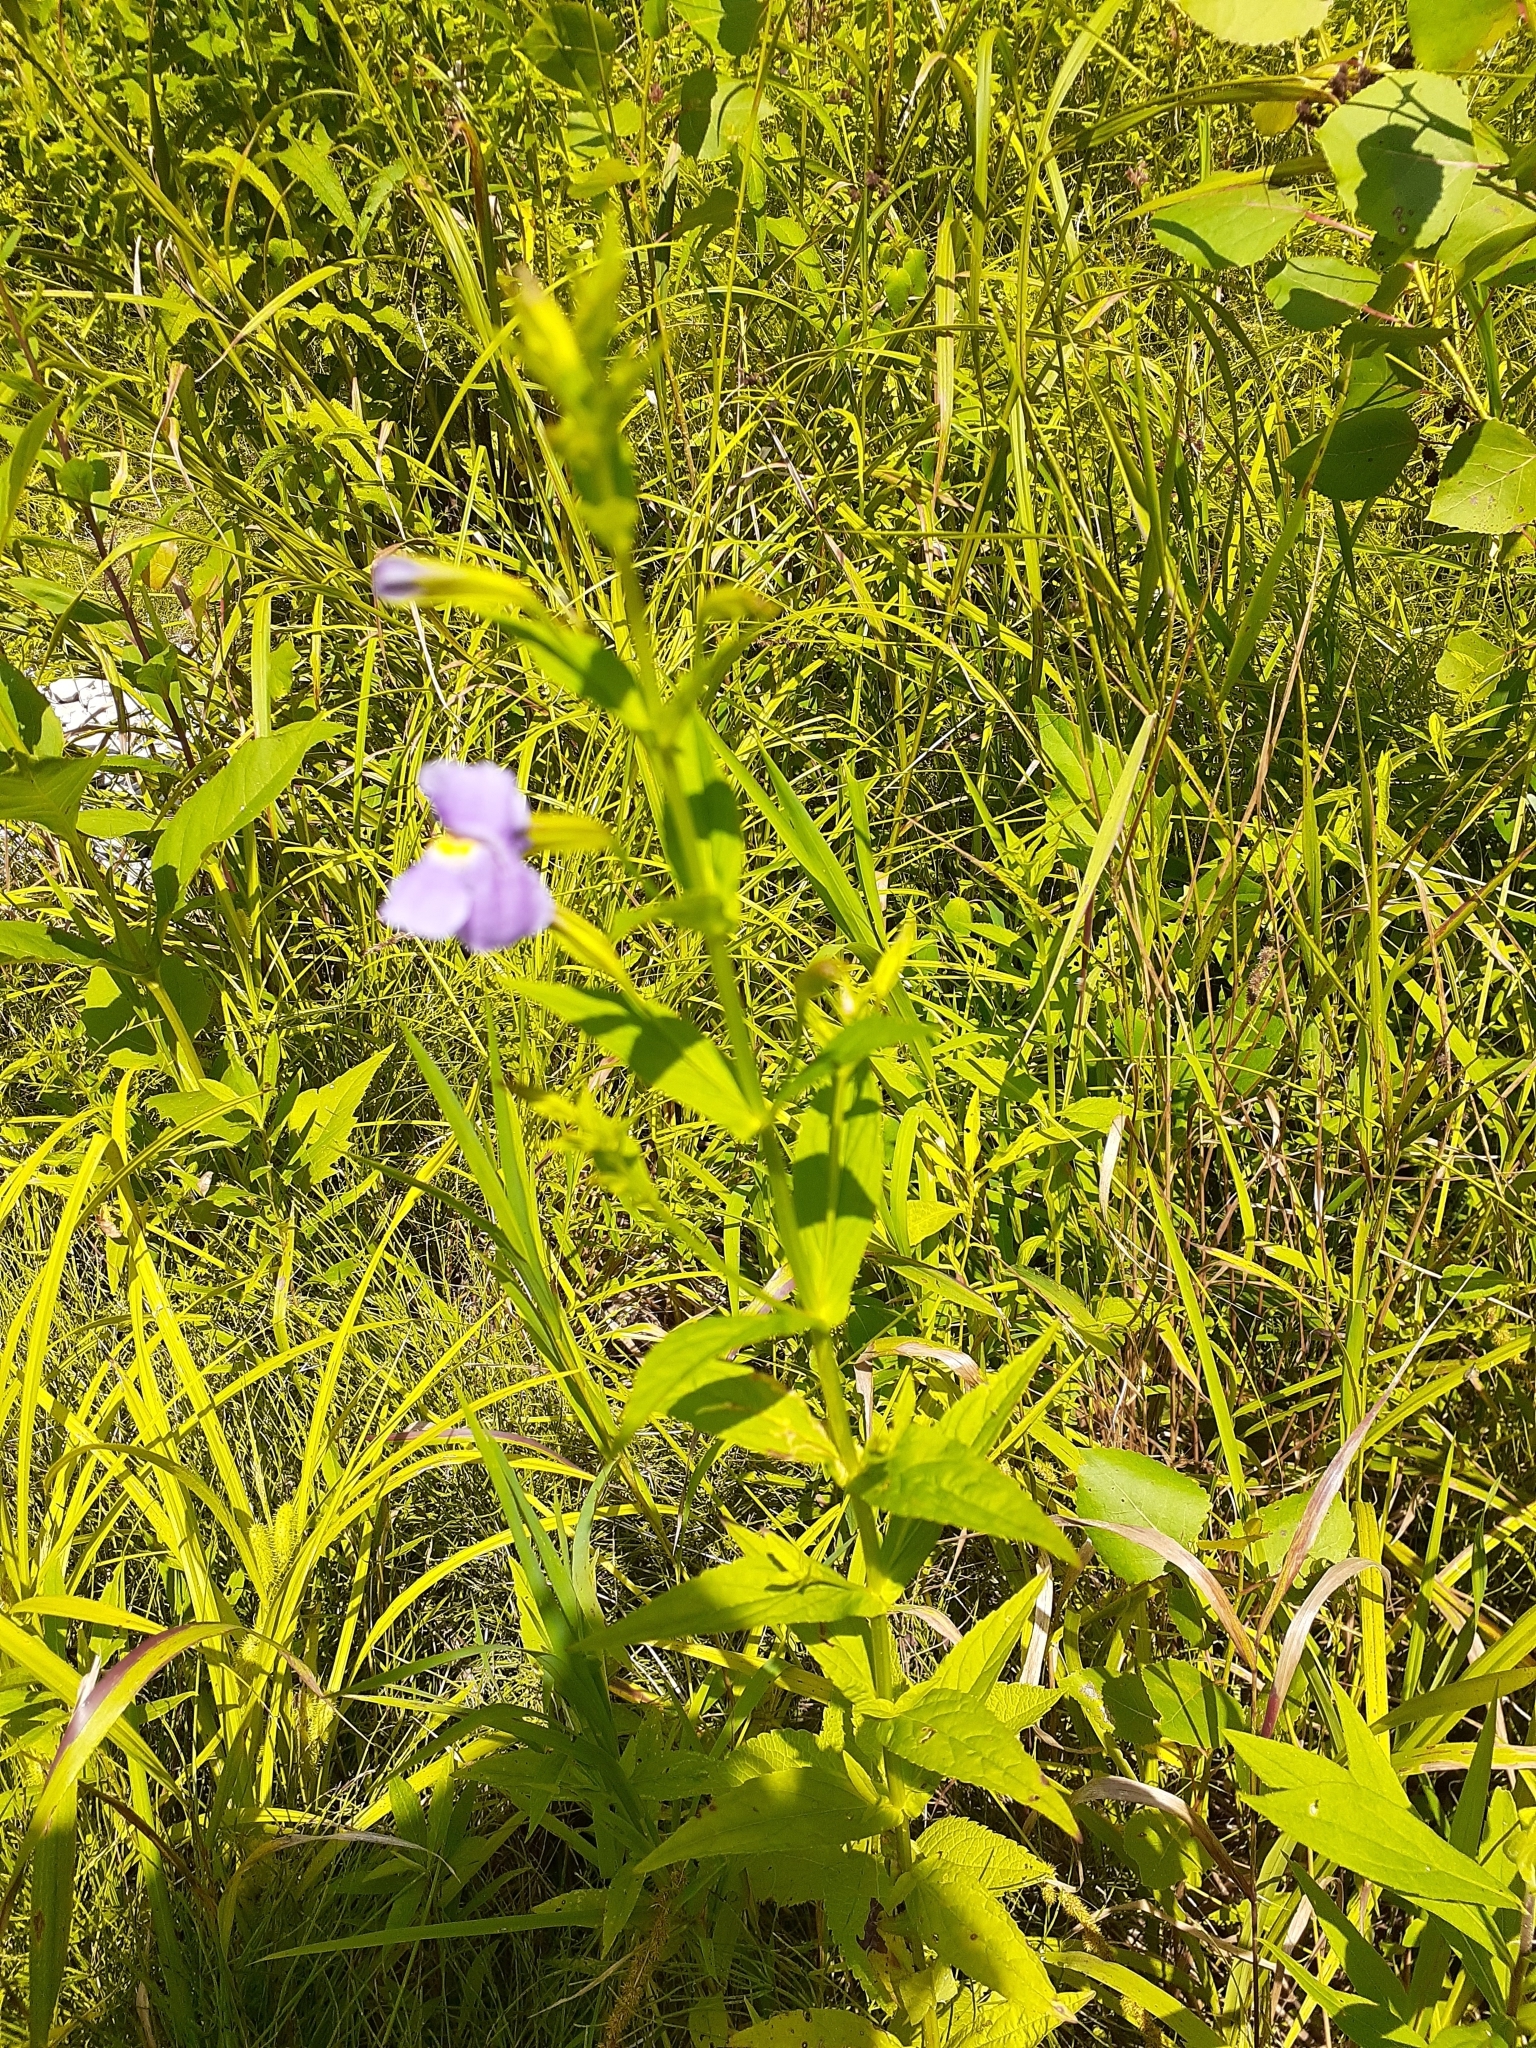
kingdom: Plantae
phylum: Tracheophyta
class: Magnoliopsida
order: Lamiales
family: Phrymaceae
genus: Mimulus
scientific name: Mimulus ringens
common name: Allegheny monkeyflower
